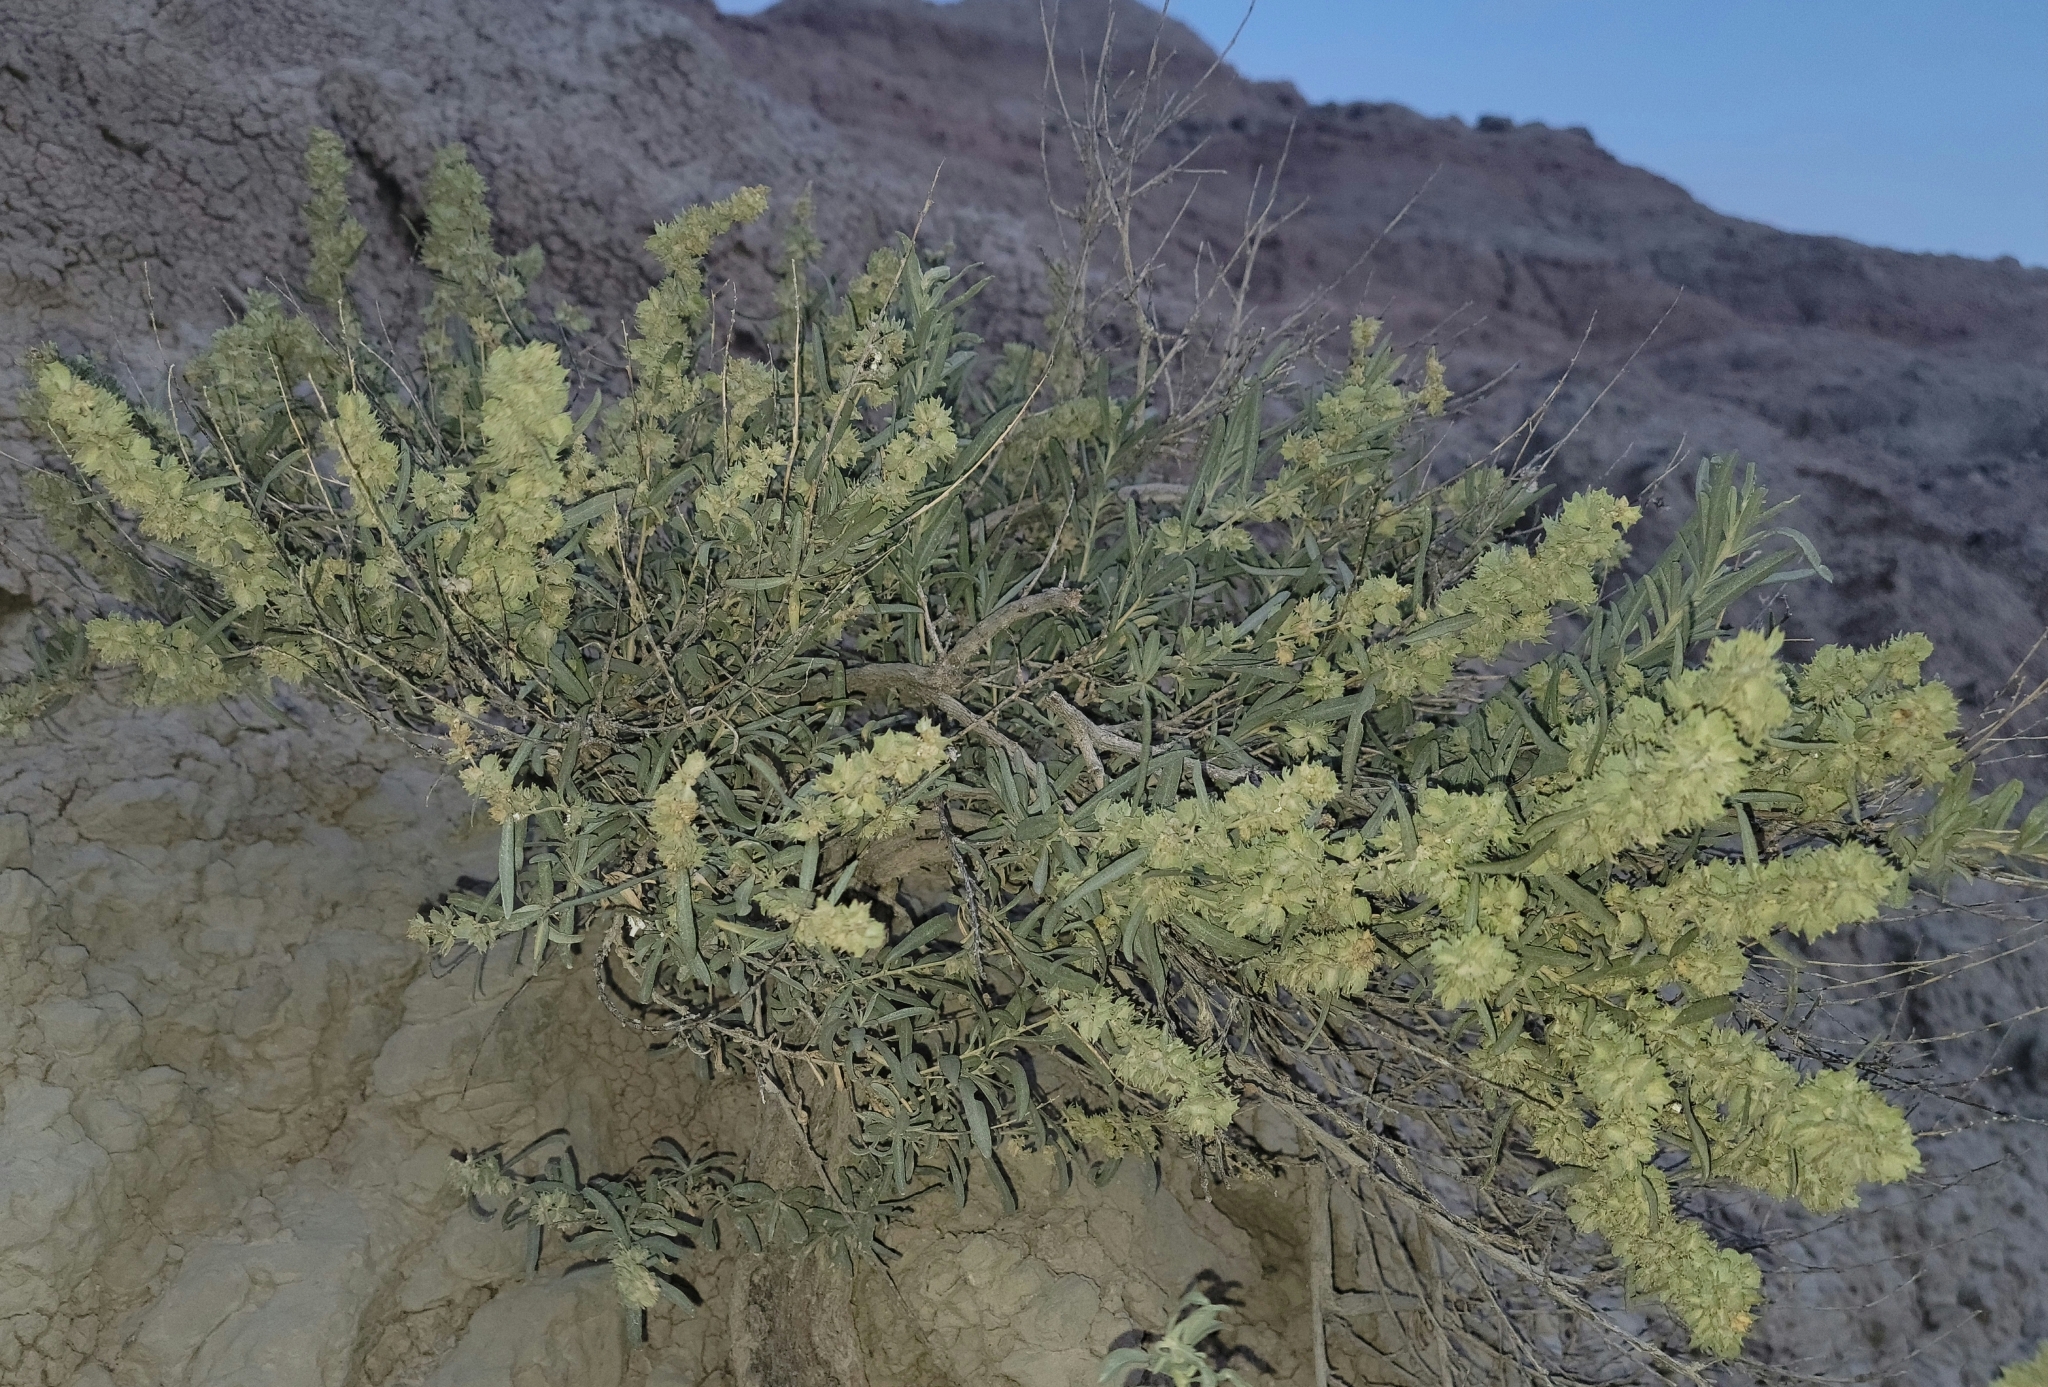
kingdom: Plantae
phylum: Tracheophyta
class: Magnoliopsida
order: Caryophyllales
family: Amaranthaceae
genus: Atriplex
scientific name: Atriplex canescens
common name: Four-wing saltbush
